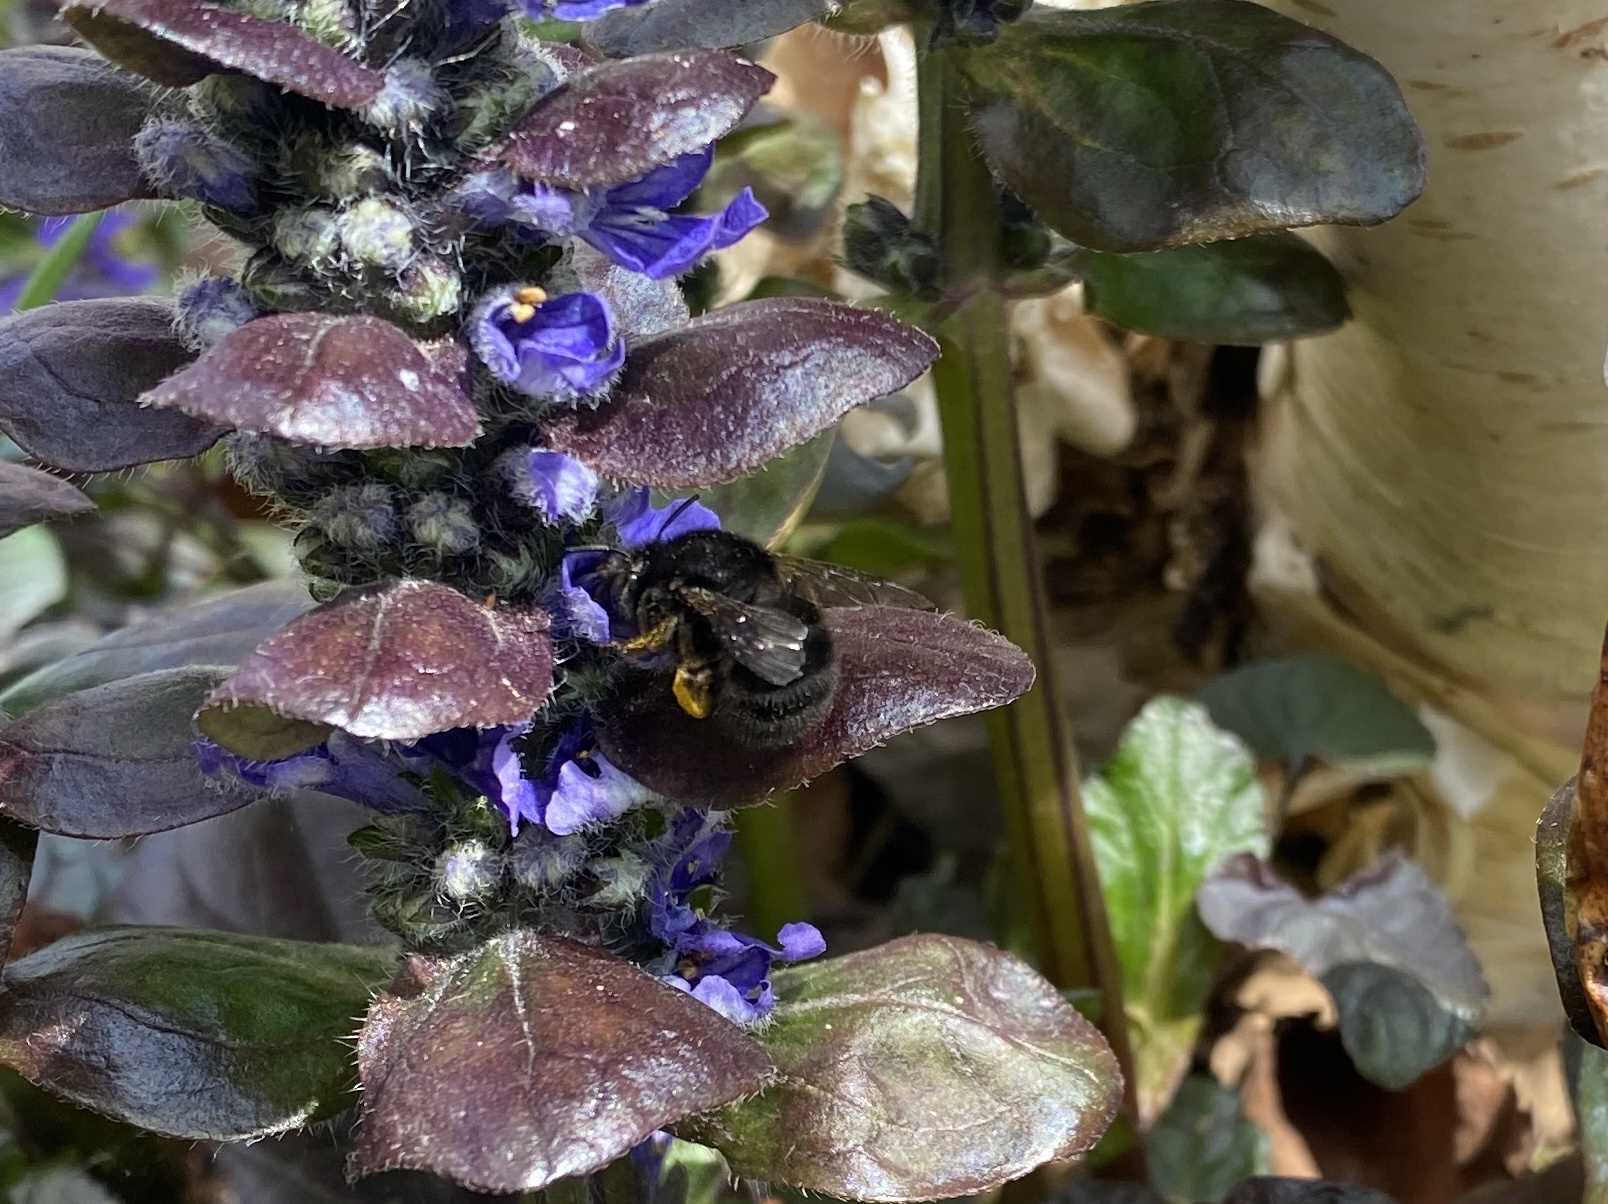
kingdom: Animalia
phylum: Arthropoda
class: Insecta
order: Hymenoptera
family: Apidae
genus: Anthophora
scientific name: Anthophora plumipes
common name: Hairy-footed flower bee
